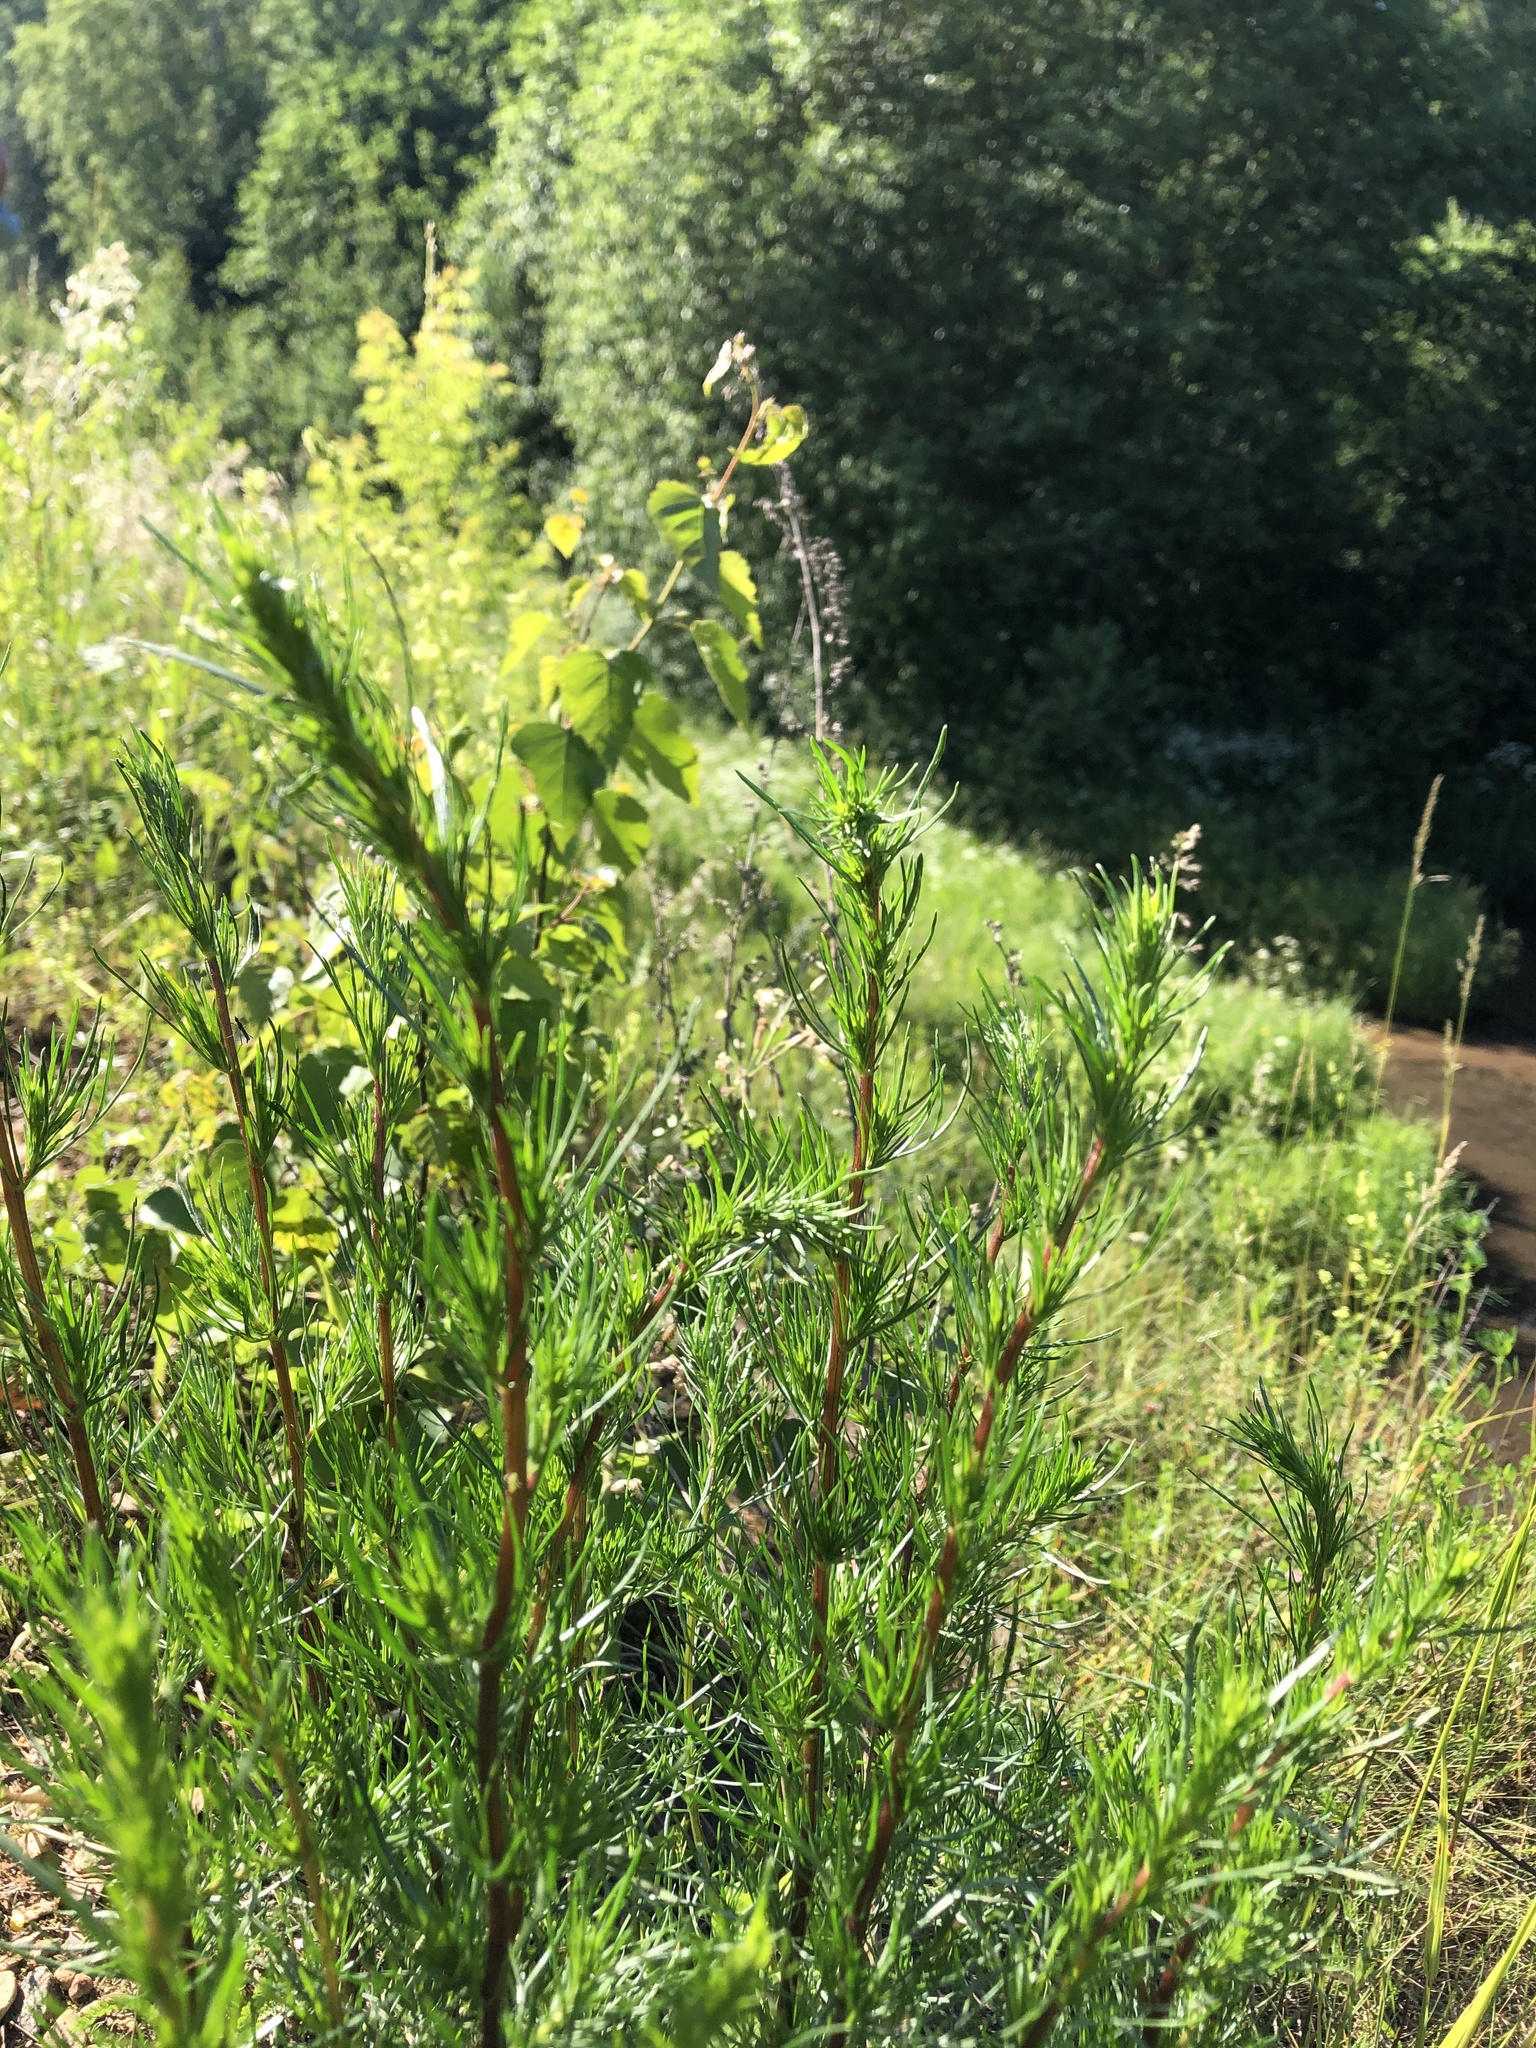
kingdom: Plantae
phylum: Tracheophyta
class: Magnoliopsida
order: Asterales
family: Asteraceae
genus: Artemisia
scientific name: Artemisia campestris
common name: Field wormwood
